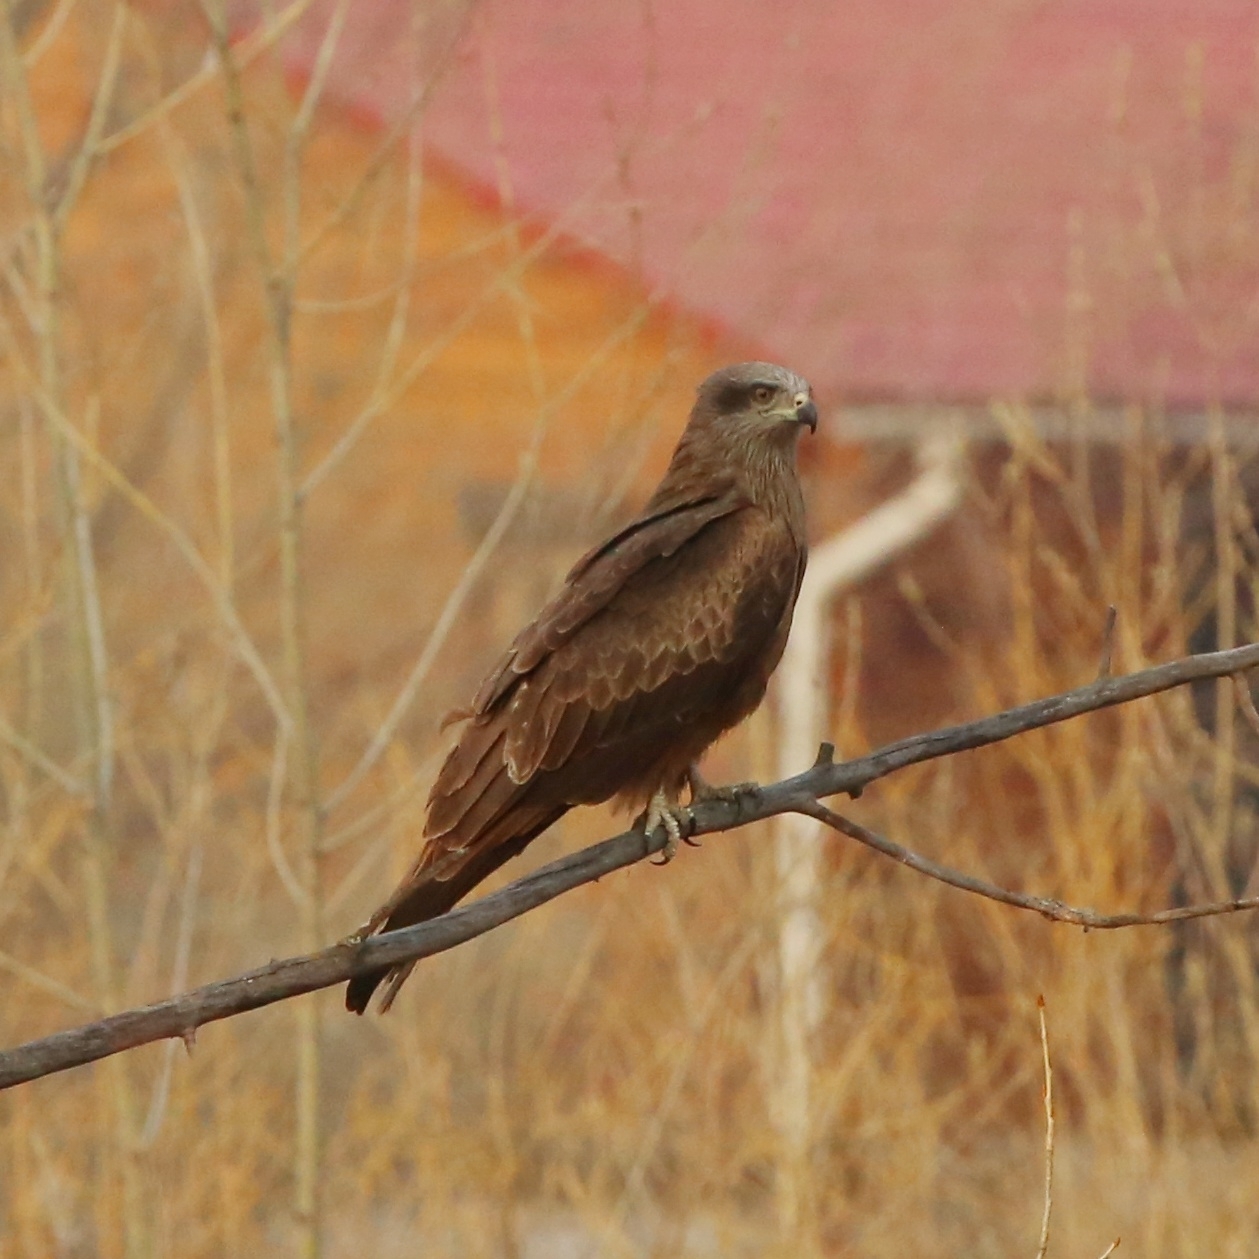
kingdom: Animalia
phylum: Chordata
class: Aves
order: Accipitriformes
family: Accipitridae
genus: Milvus
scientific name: Milvus migrans
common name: Black kite
